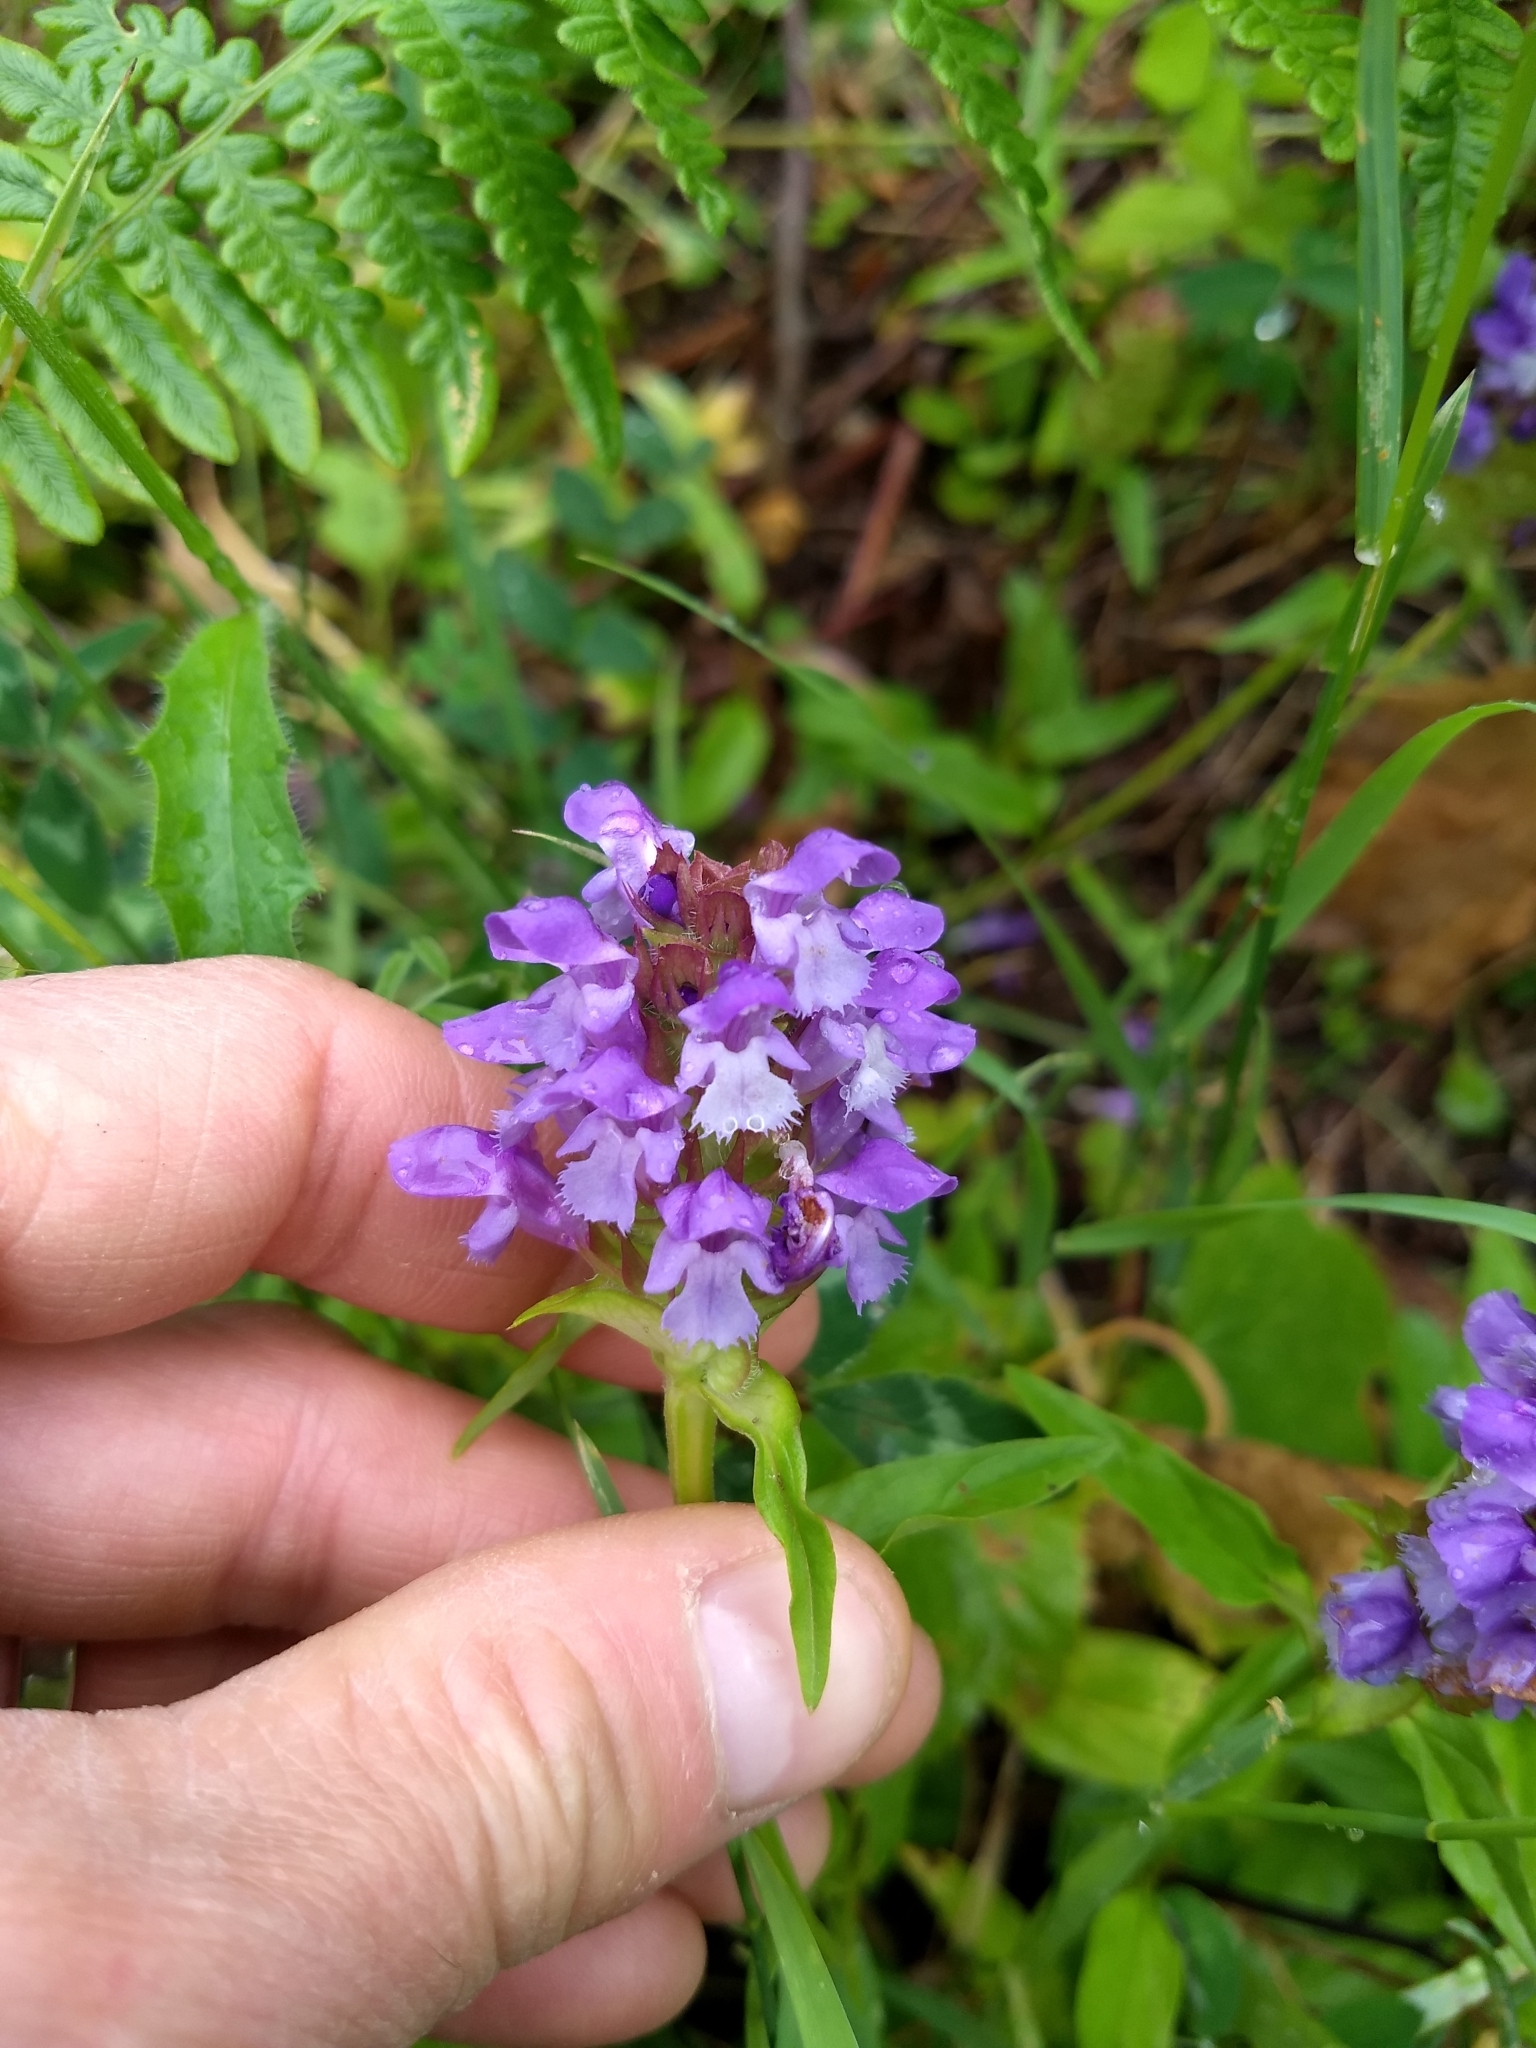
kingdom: Plantae
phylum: Tracheophyta
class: Magnoliopsida
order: Lamiales
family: Lamiaceae
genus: Prunella
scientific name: Prunella vulgaris
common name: Heal-all
